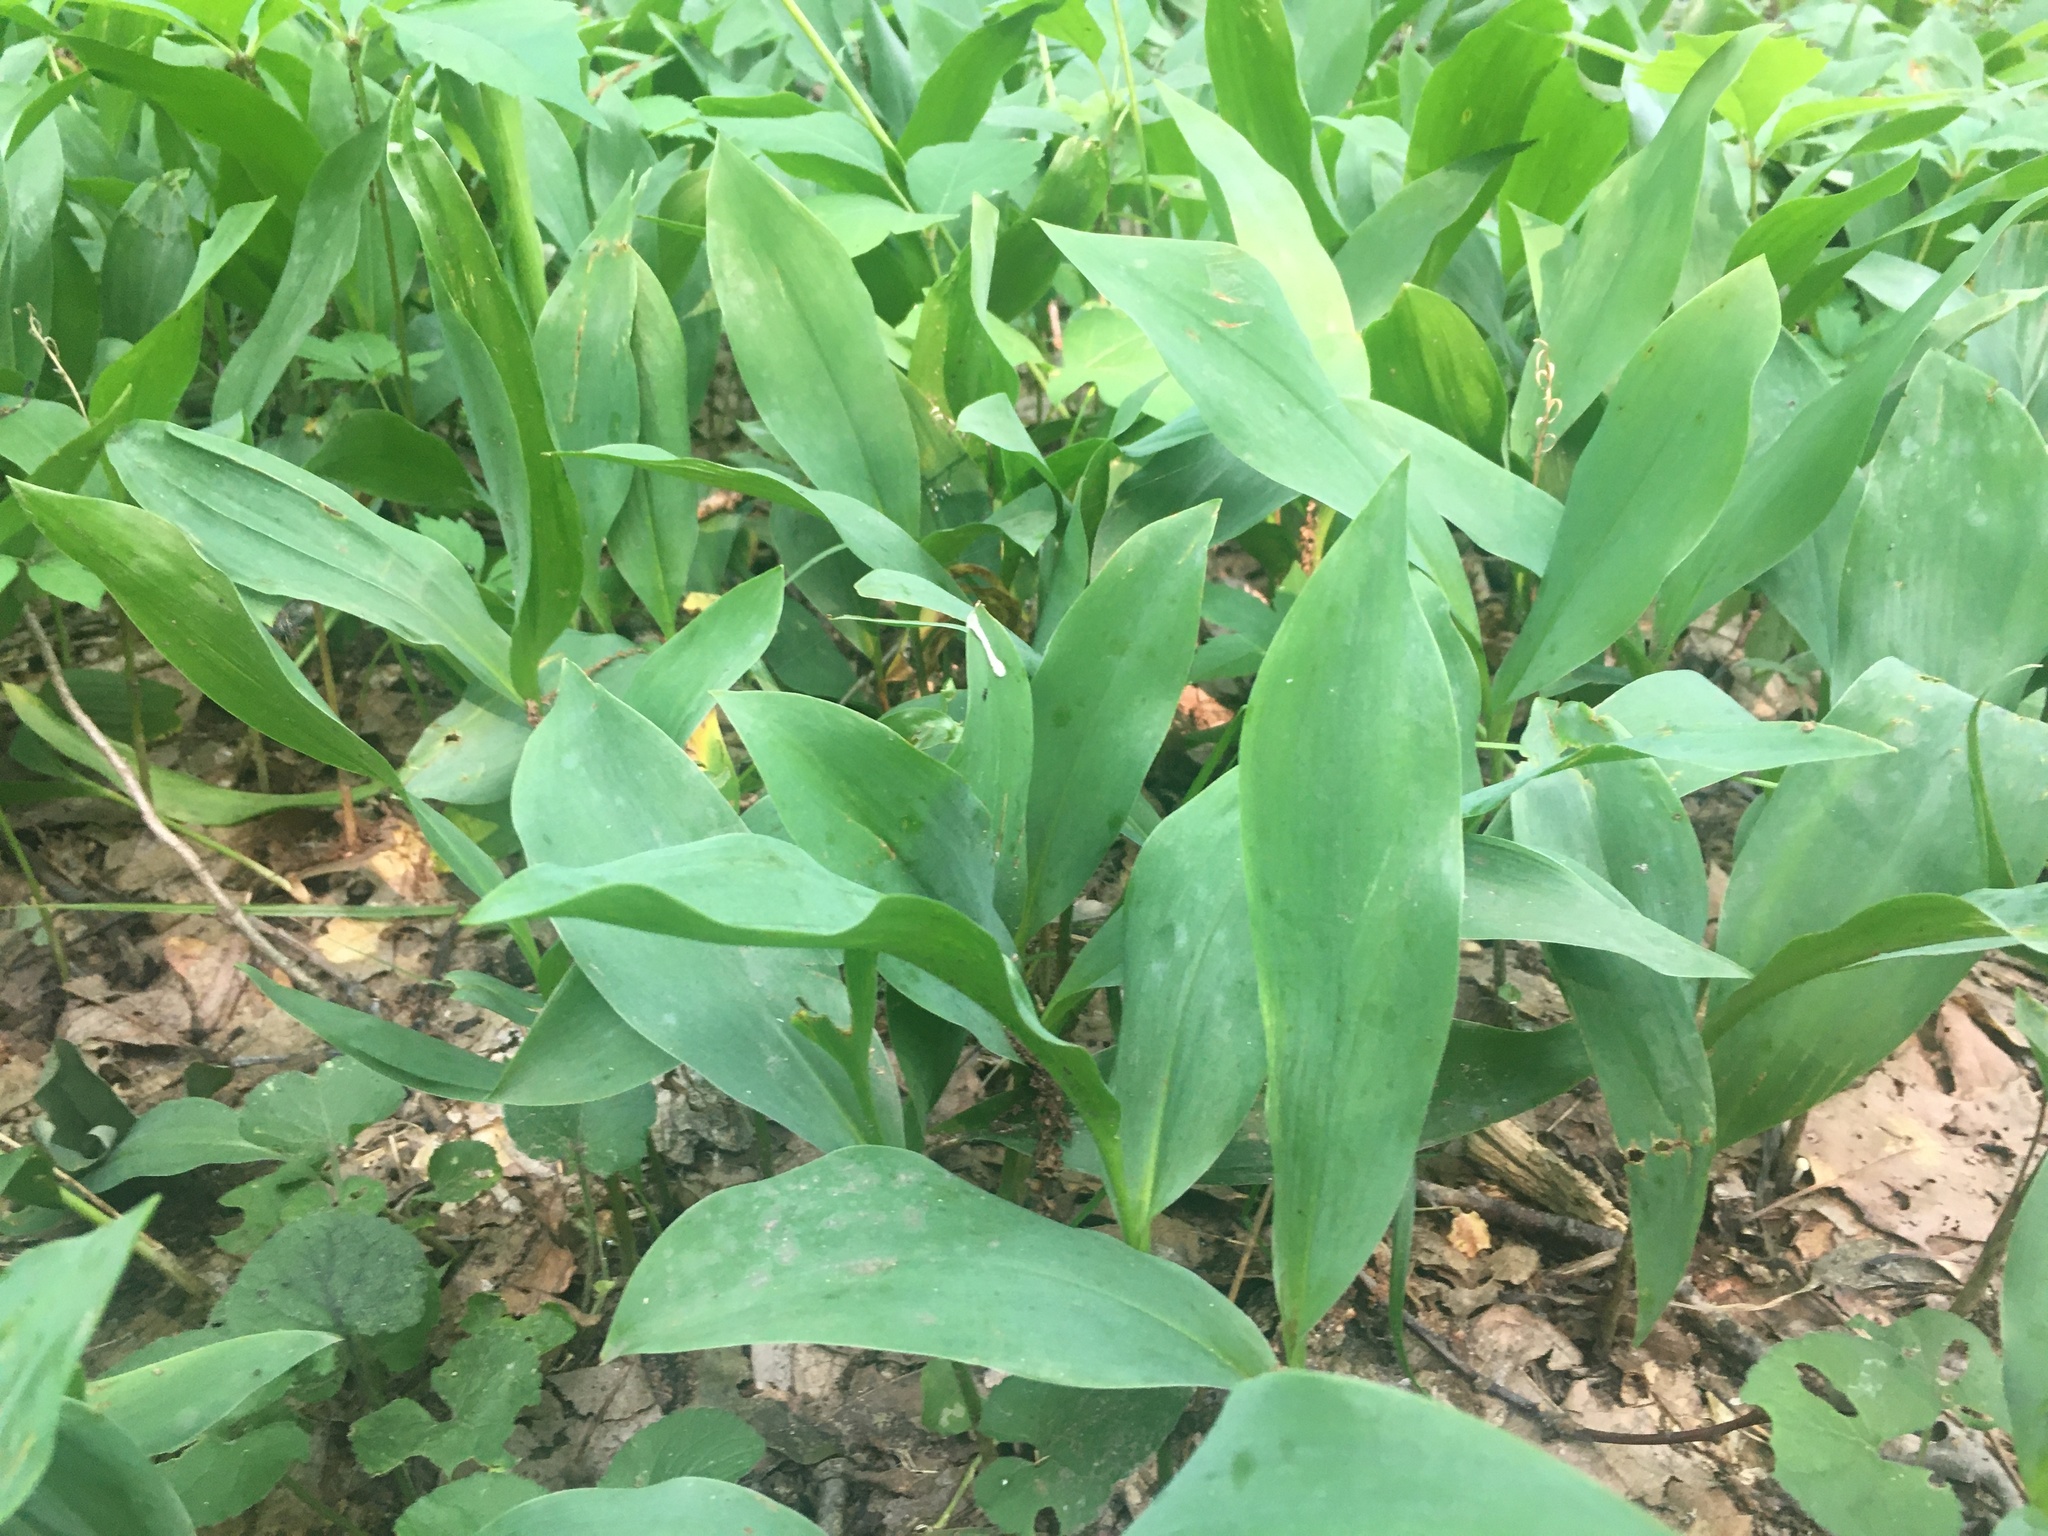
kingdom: Plantae
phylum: Tracheophyta
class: Liliopsida
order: Asparagales
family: Asparagaceae
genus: Convallaria
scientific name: Convallaria majalis
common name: Lily-of-the-valley
